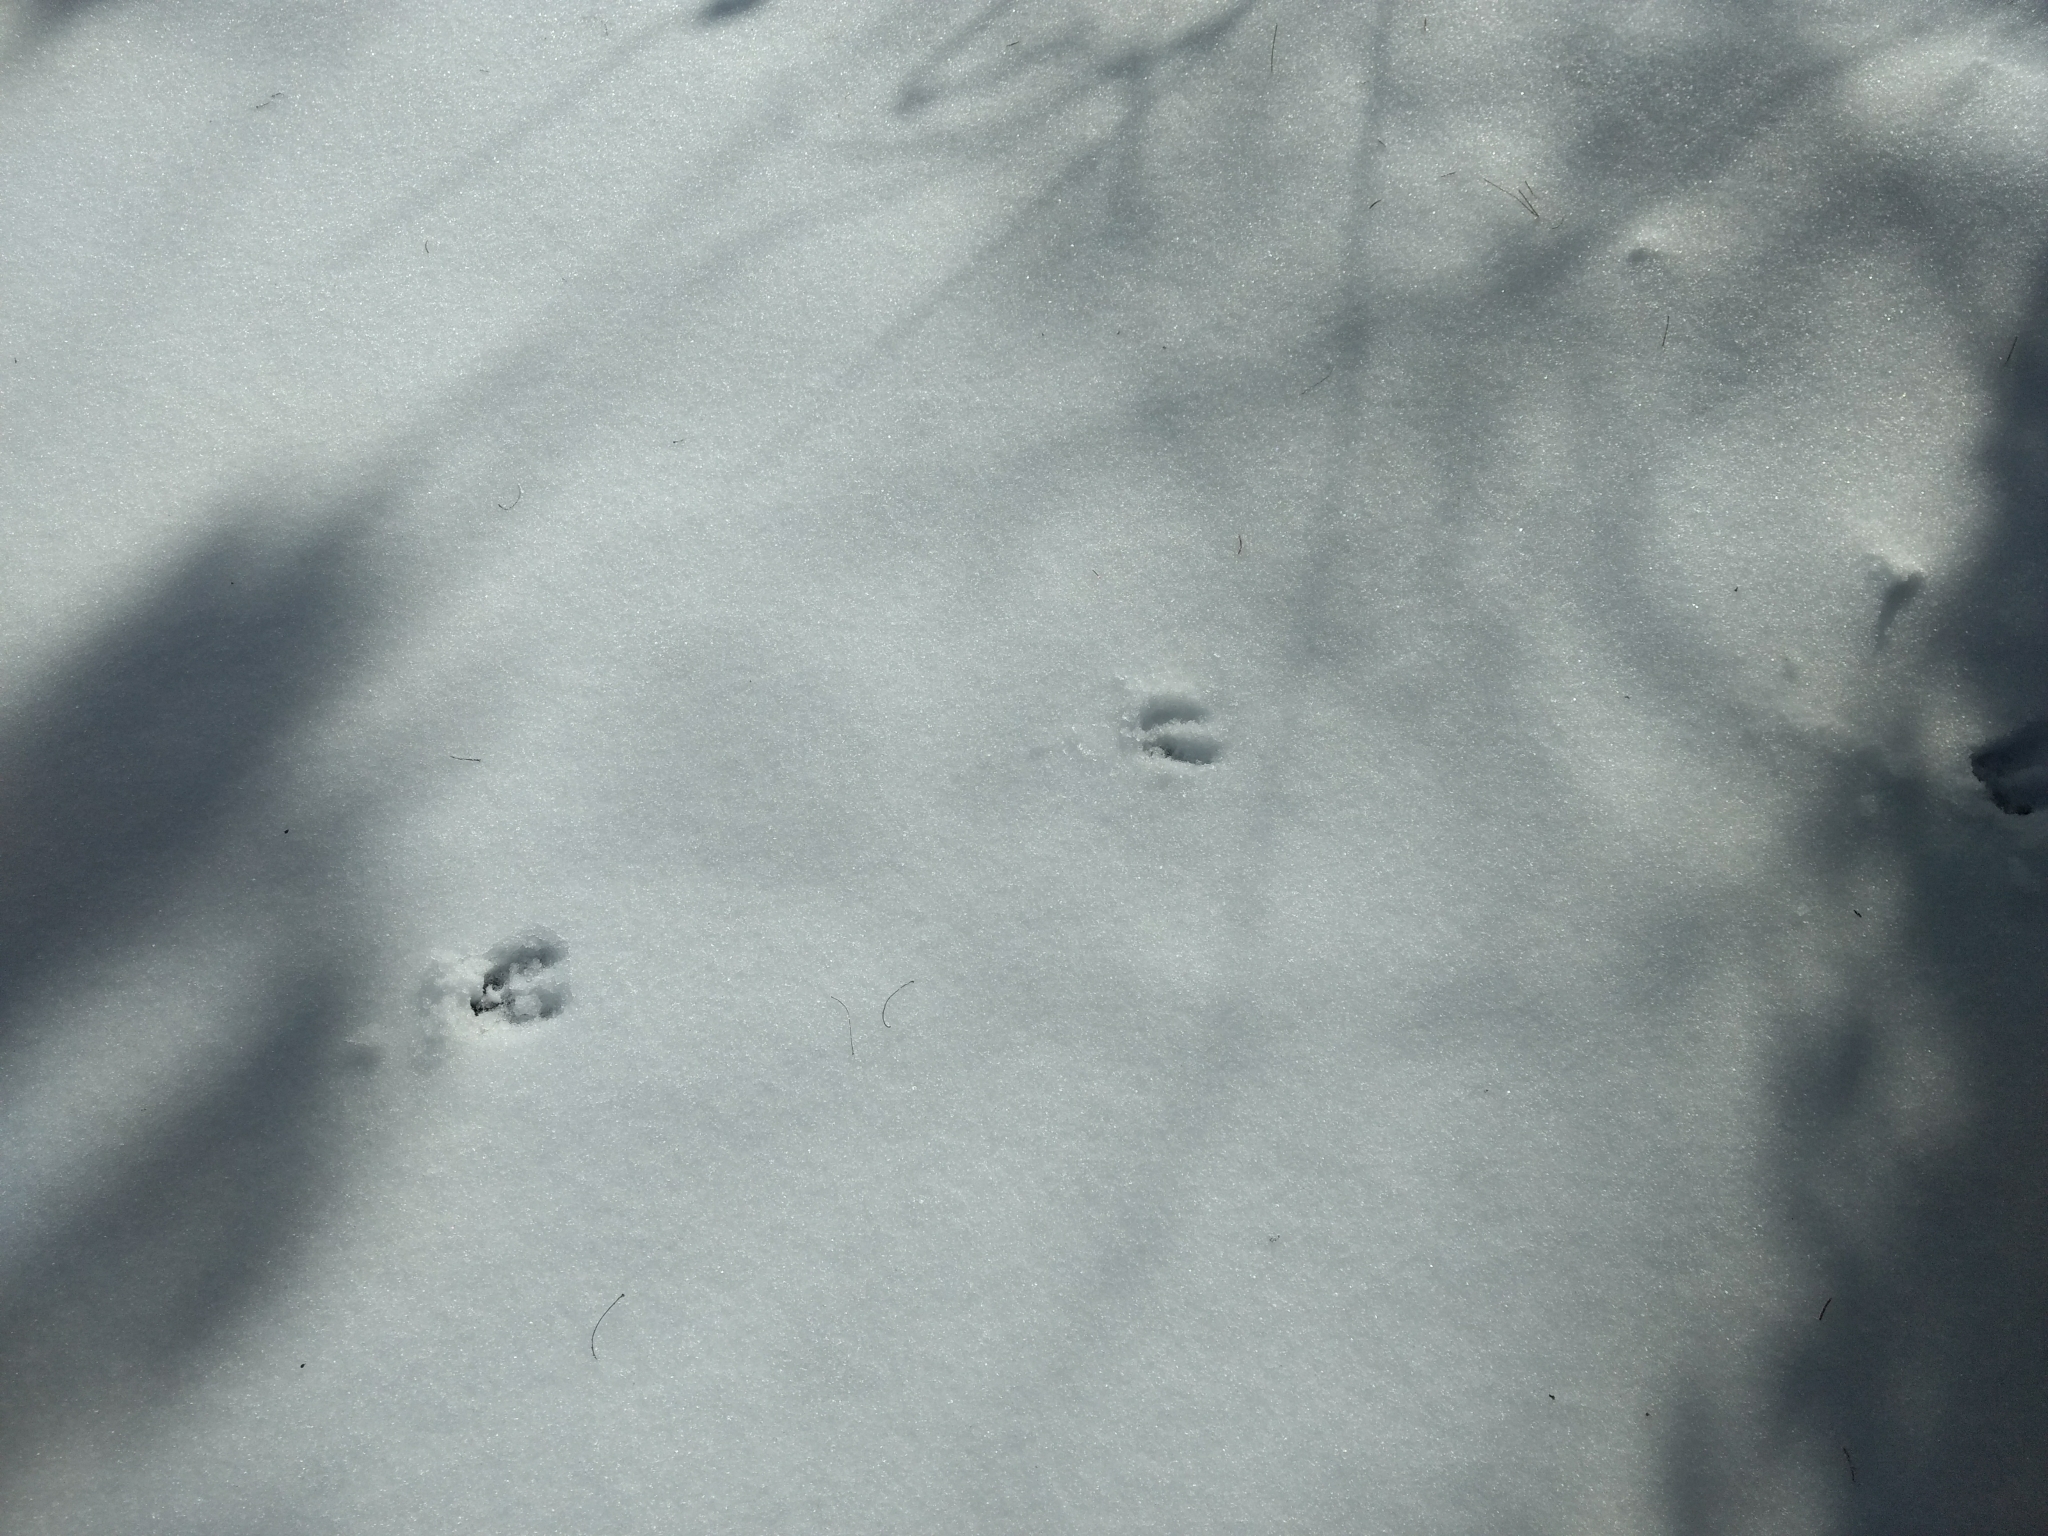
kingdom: Animalia
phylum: Chordata
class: Mammalia
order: Artiodactyla
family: Cervidae
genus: Odocoileus
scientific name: Odocoileus virginianus
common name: White-tailed deer
